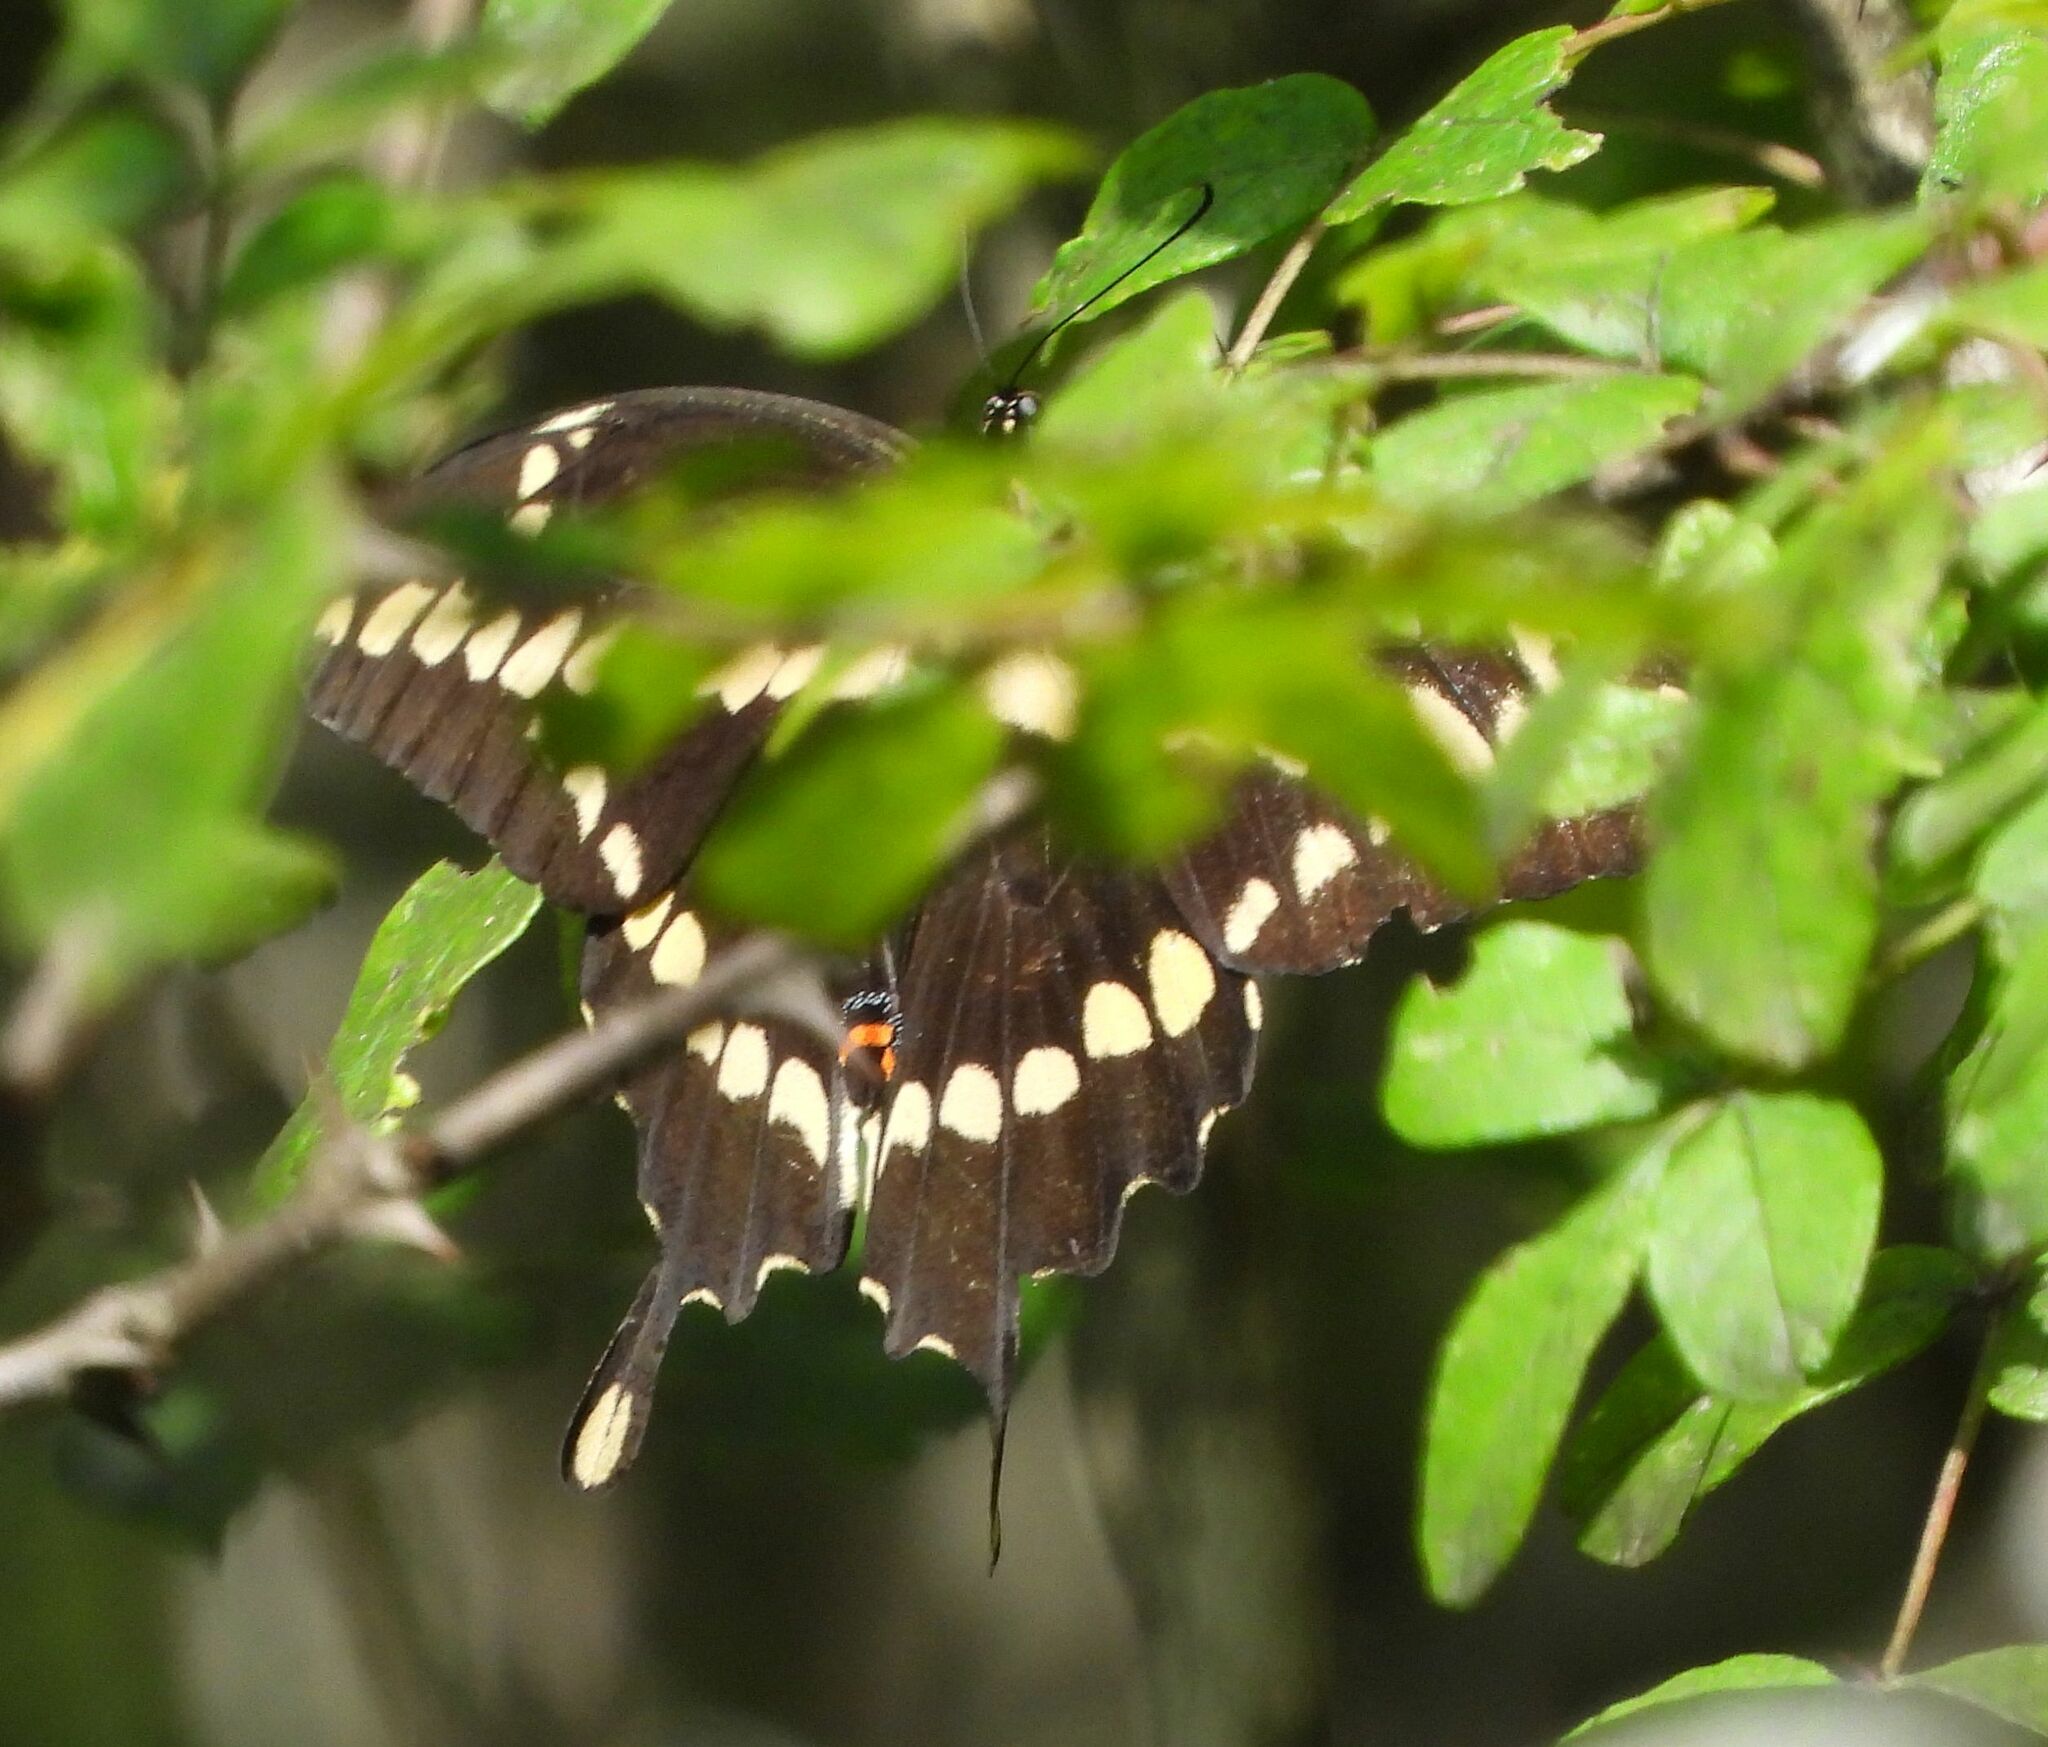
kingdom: Animalia
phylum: Arthropoda
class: Insecta
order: Lepidoptera
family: Papilionidae
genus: Papilio
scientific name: Papilio cresphontes
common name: Giant swallowtail
